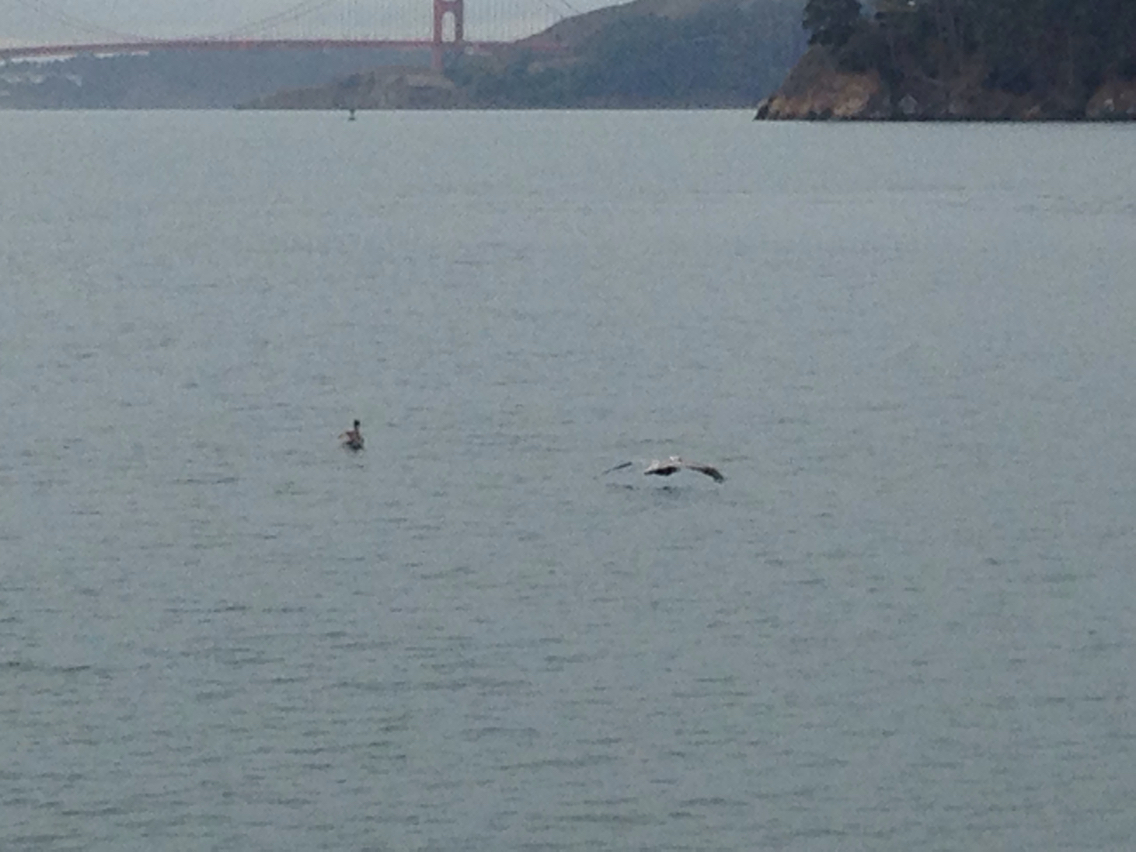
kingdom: Animalia
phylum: Chordata
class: Aves
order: Pelecaniformes
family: Pelecanidae
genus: Pelecanus
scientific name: Pelecanus occidentalis
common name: Brown pelican
